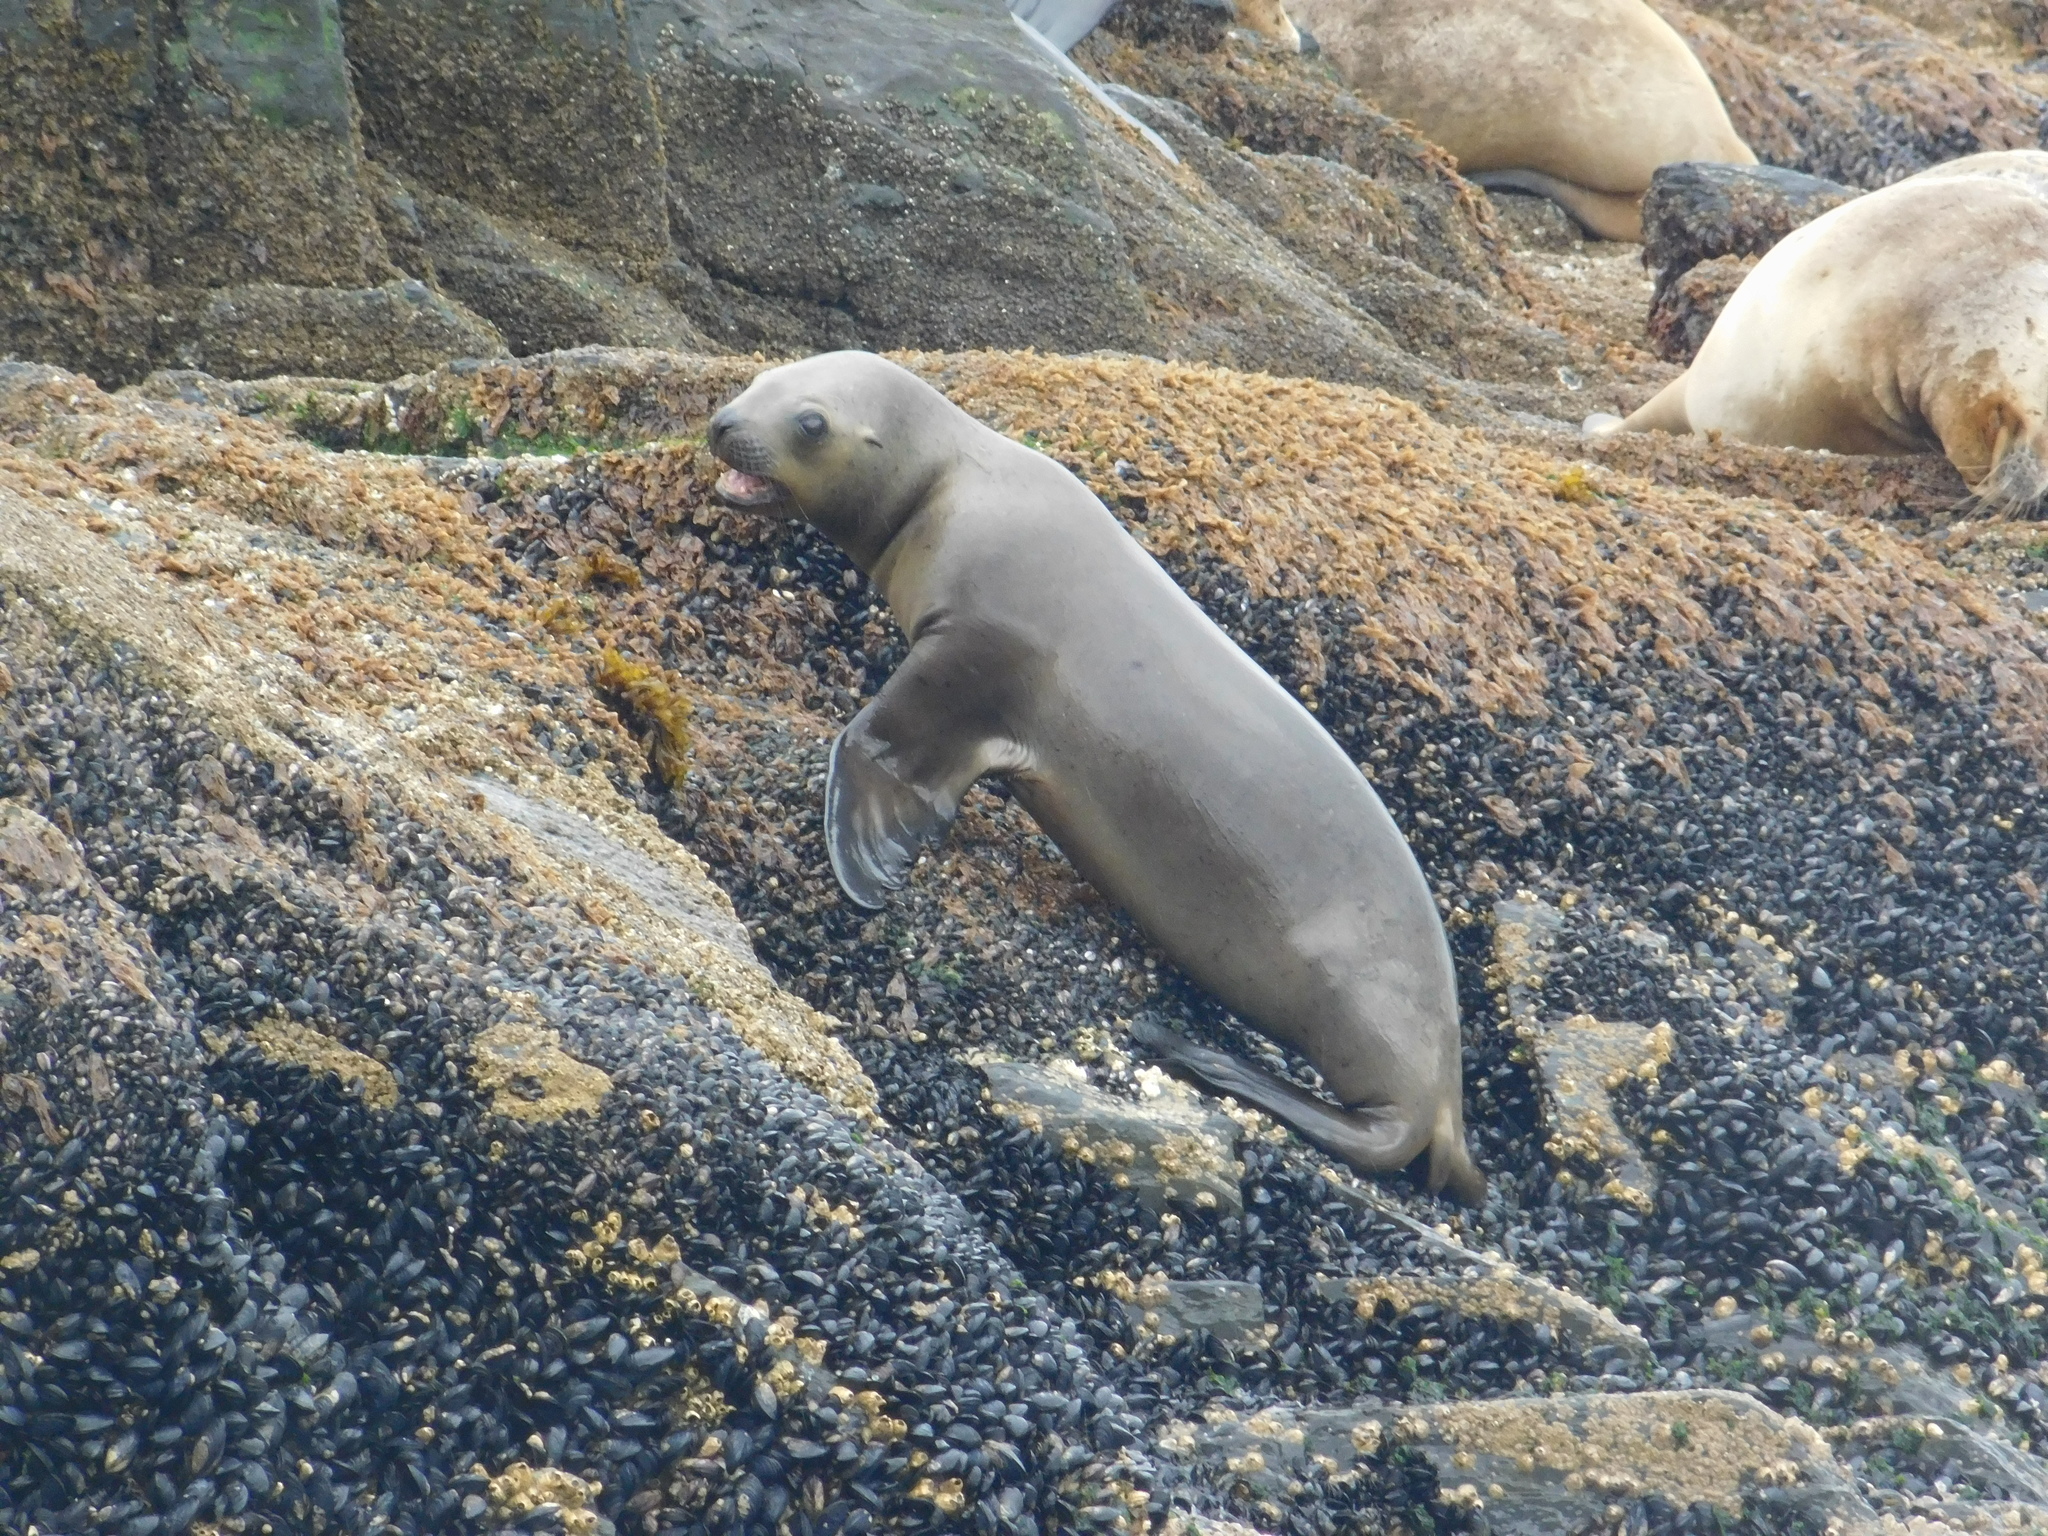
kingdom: Animalia
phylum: Chordata
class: Mammalia
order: Carnivora
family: Otariidae
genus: Otaria
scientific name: Otaria byronia
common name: South american sea lion
